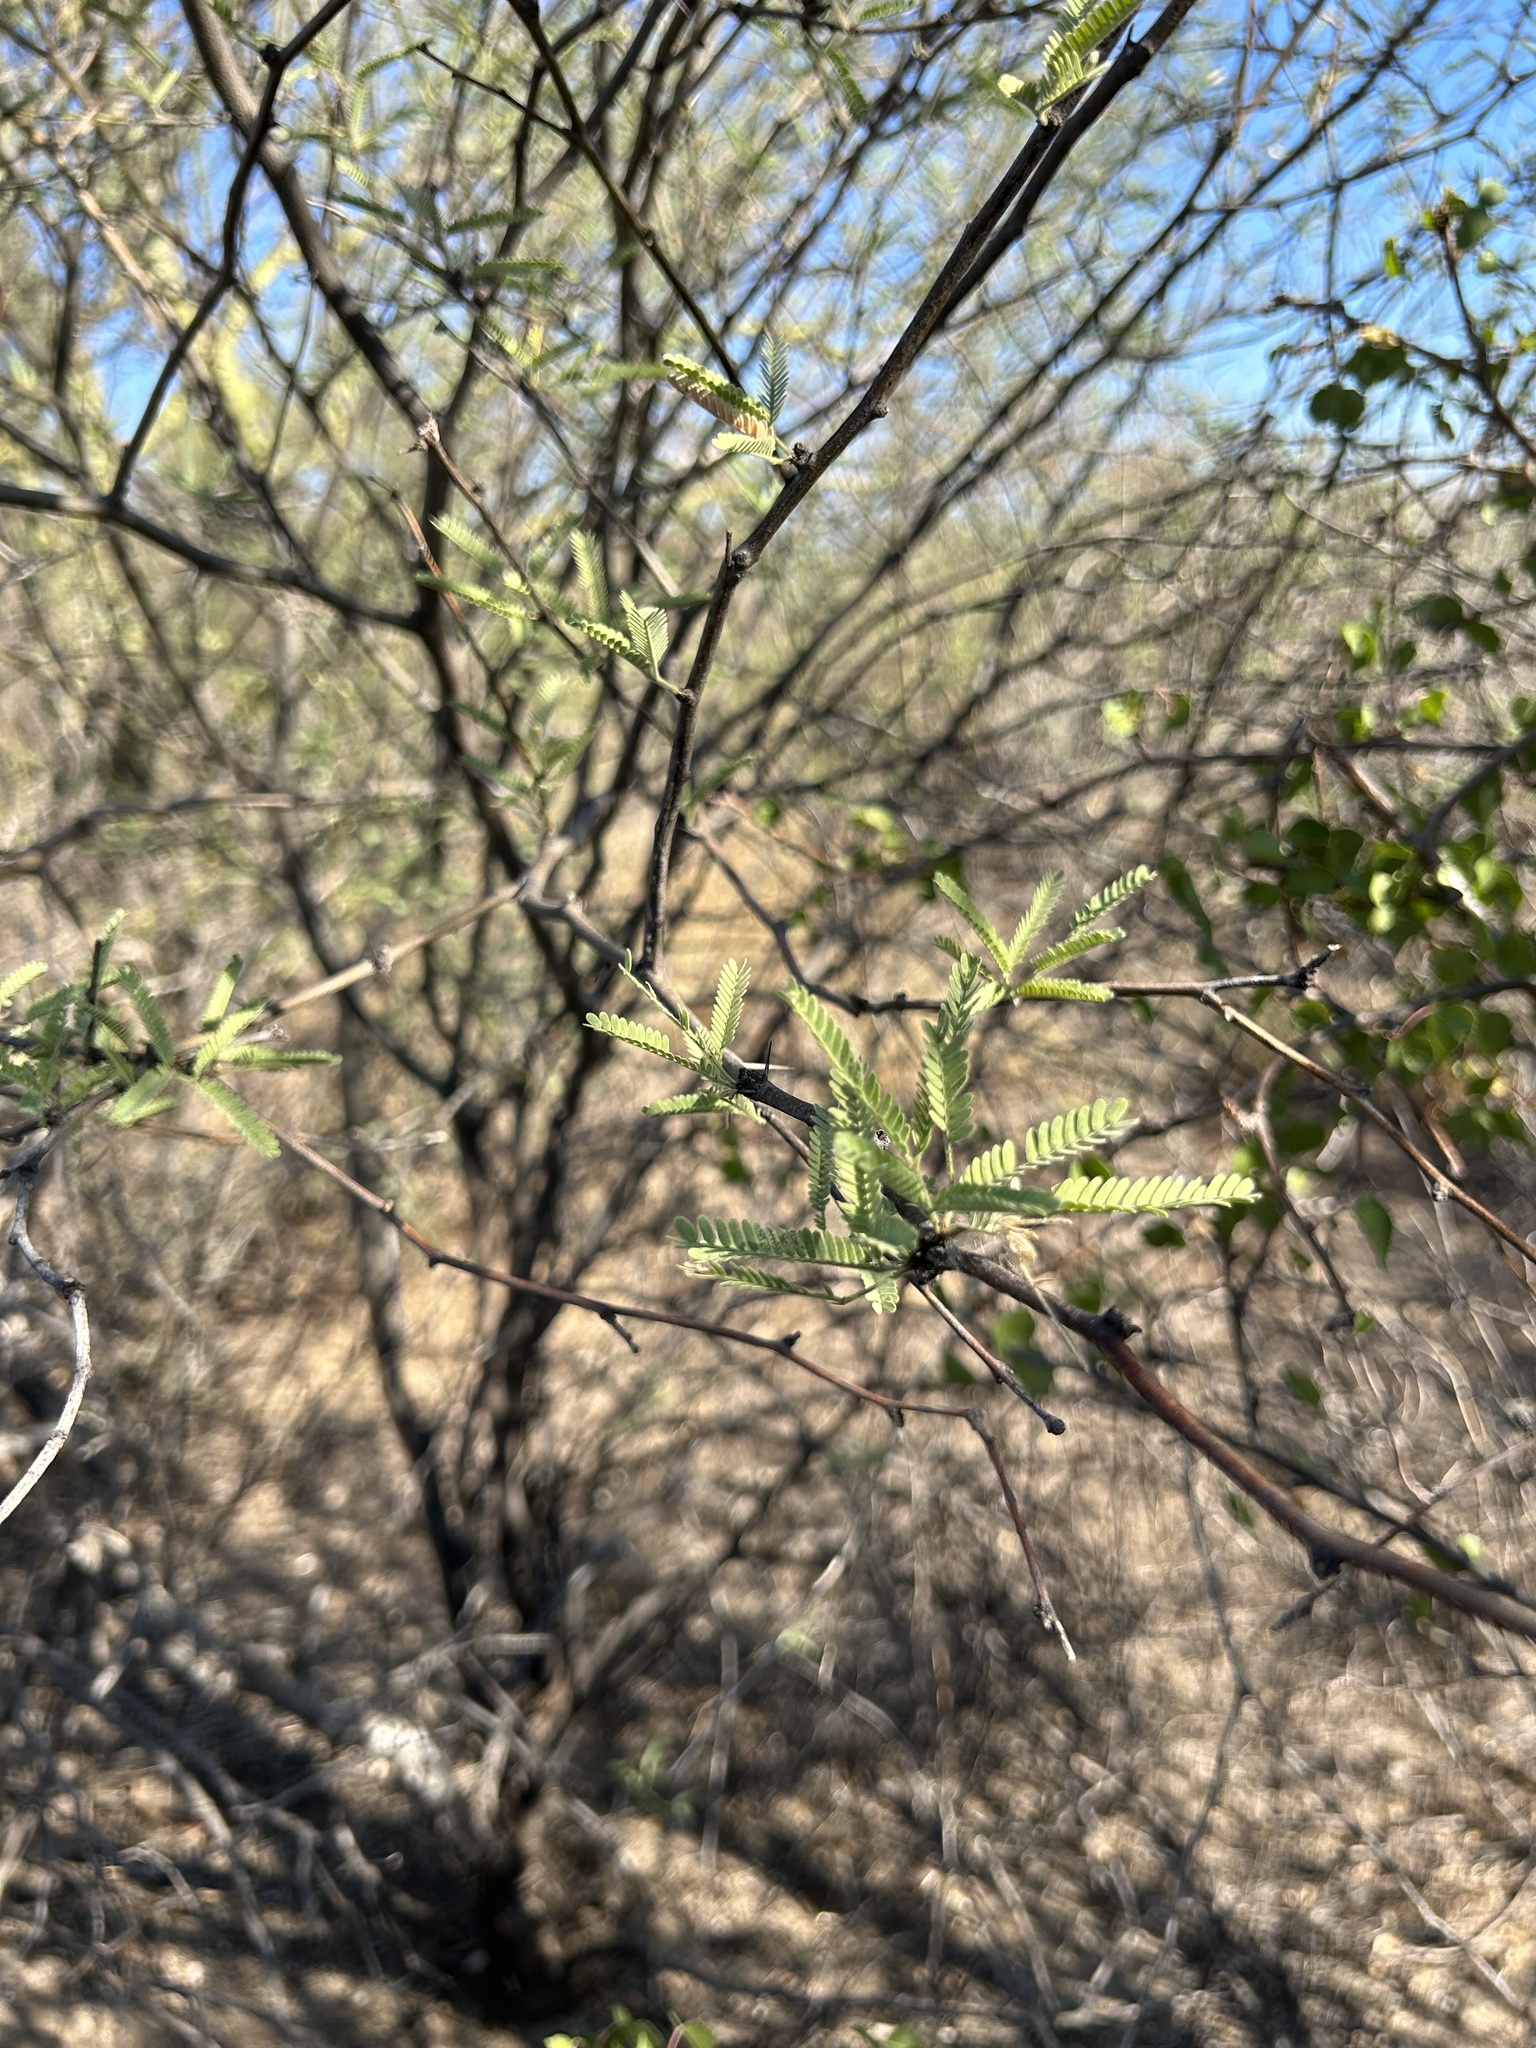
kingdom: Plantae
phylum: Tracheophyta
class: Magnoliopsida
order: Fabales
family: Fabaceae
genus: Prosopis
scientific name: Prosopis velutina
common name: Velvet mesquite
